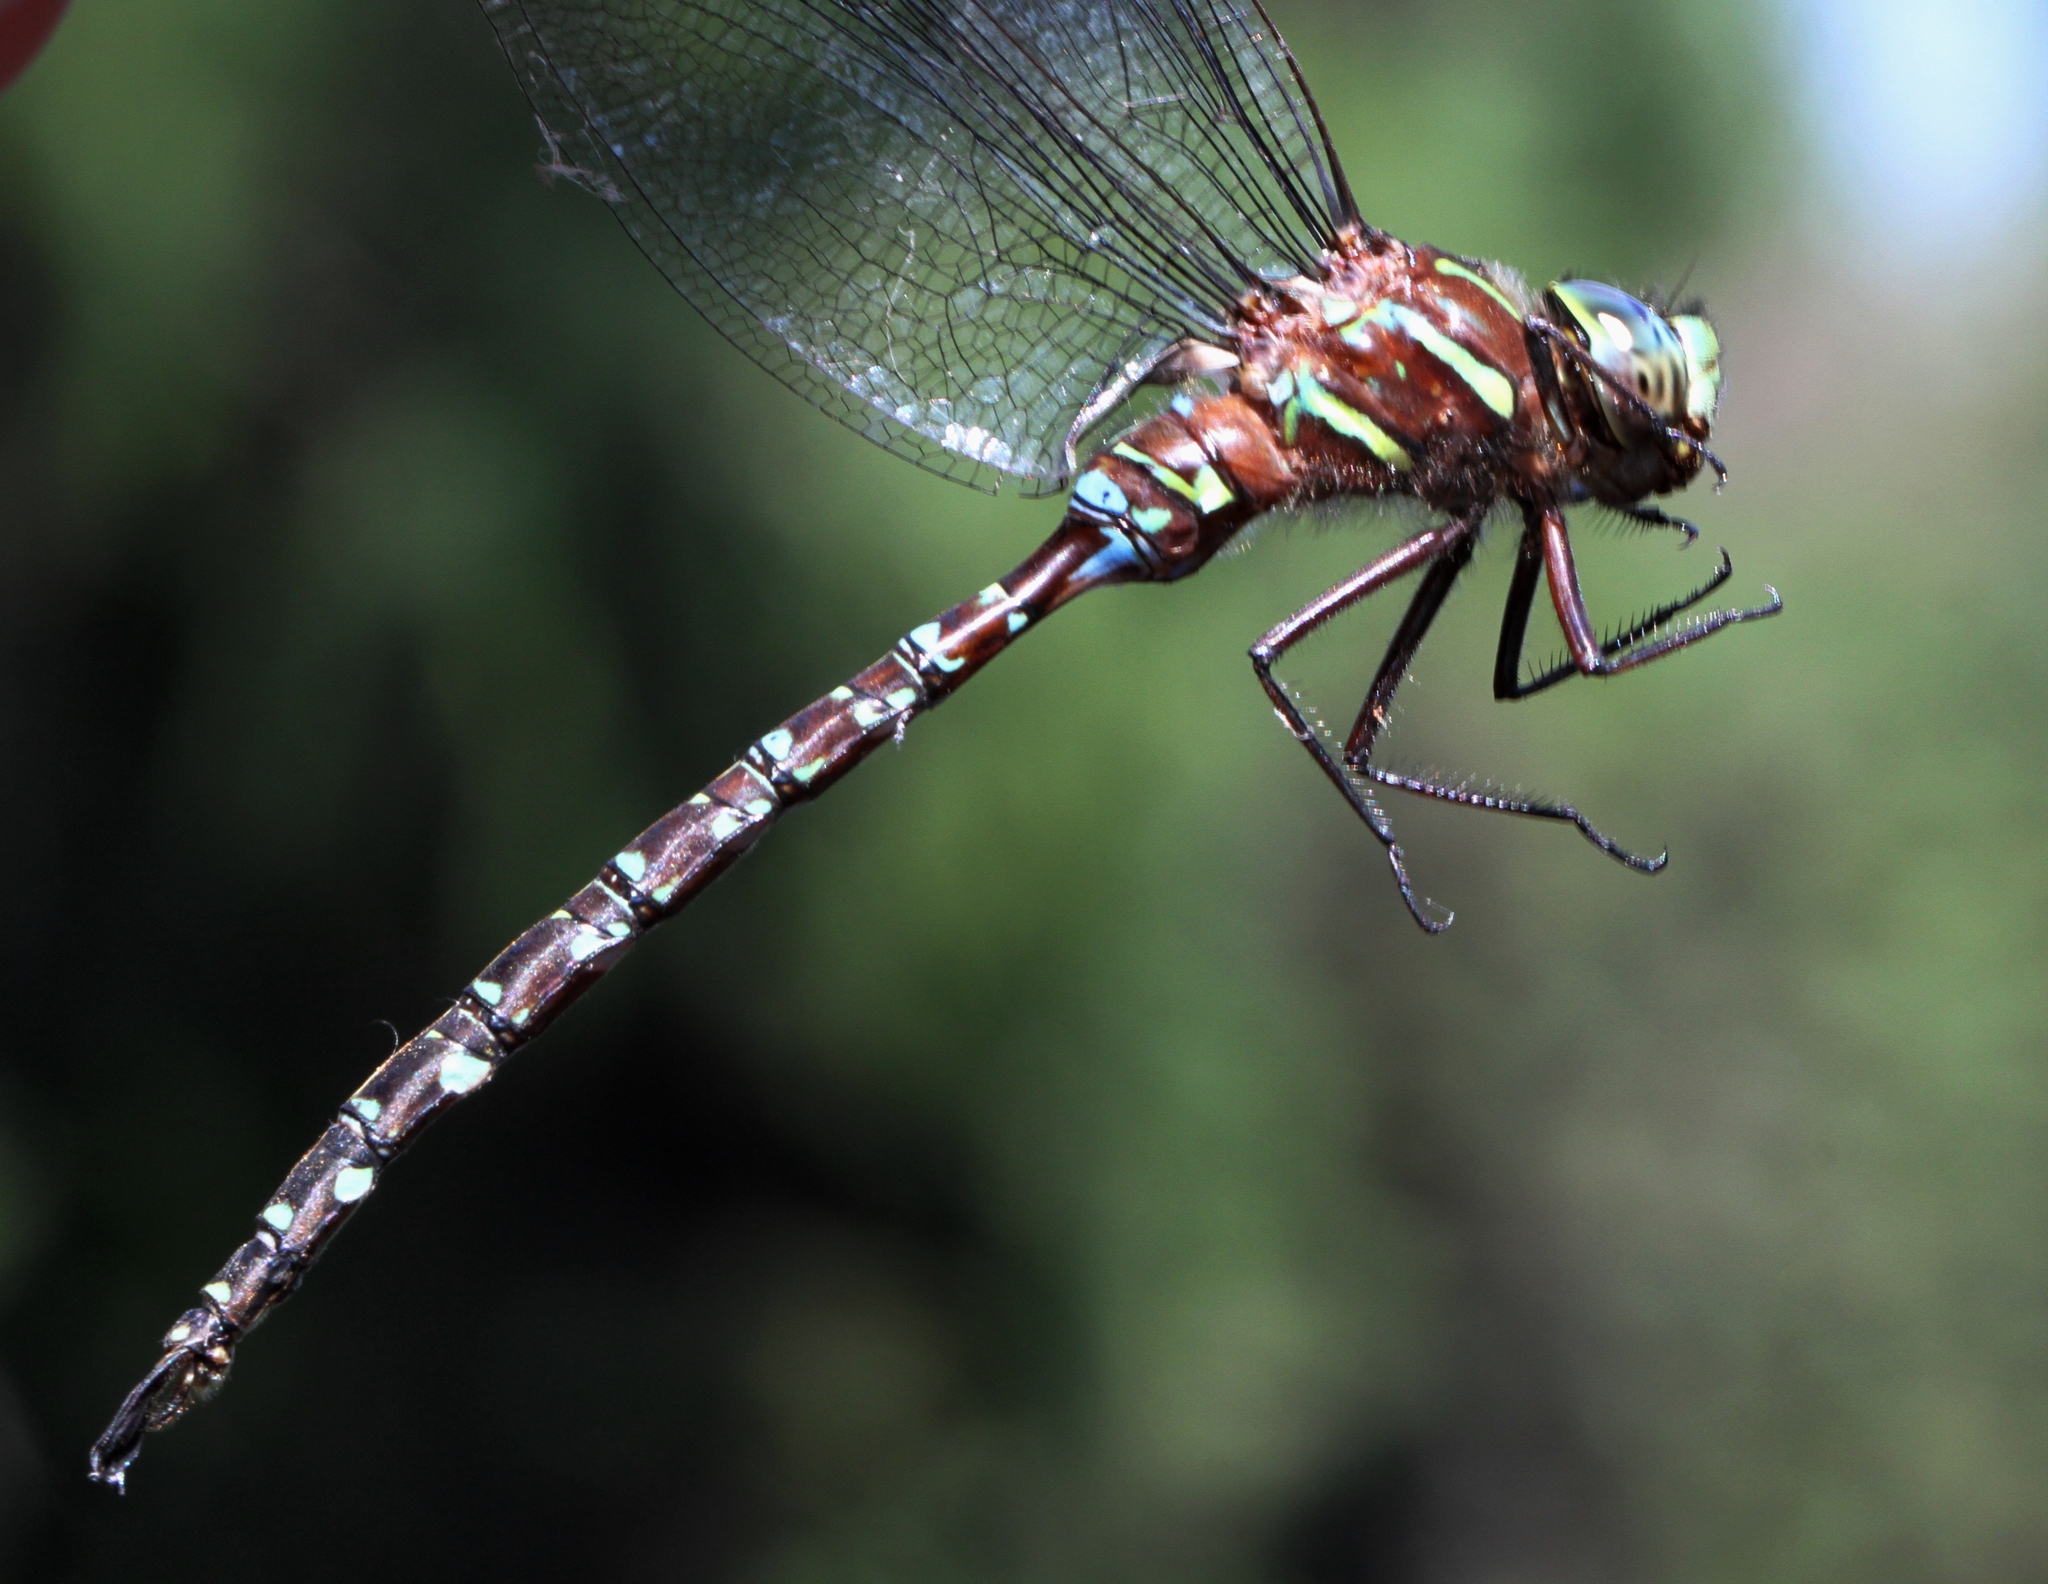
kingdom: Animalia
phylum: Arthropoda
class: Insecta
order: Odonata
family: Aeshnidae
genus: Aeshna
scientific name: Aeshna umbrosa
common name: Shadow darner
